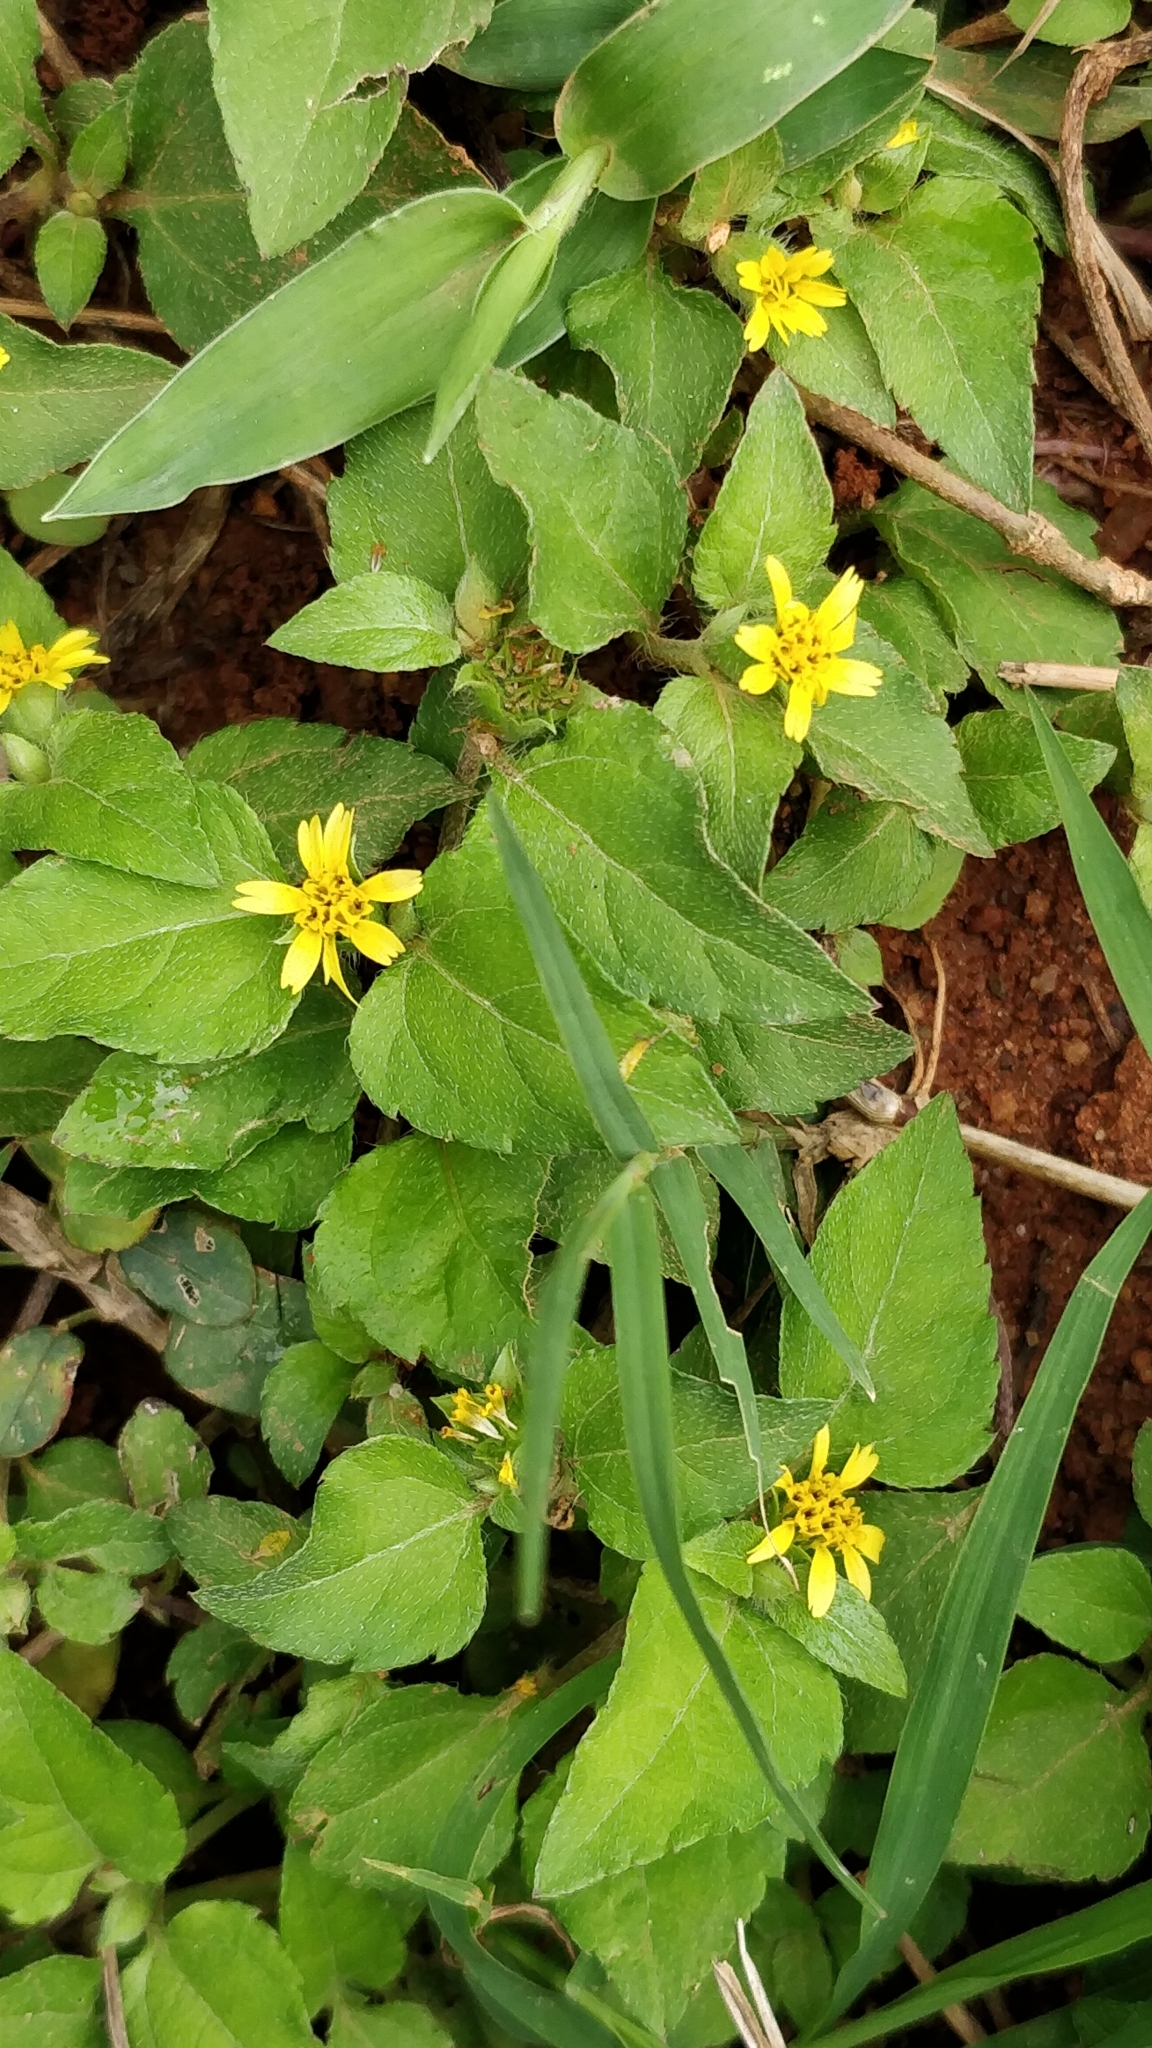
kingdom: Plantae
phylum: Tracheophyta
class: Magnoliopsida
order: Asterales
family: Asteraceae
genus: Calyptocarpus
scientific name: Calyptocarpus vialis
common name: Straggler daisy
